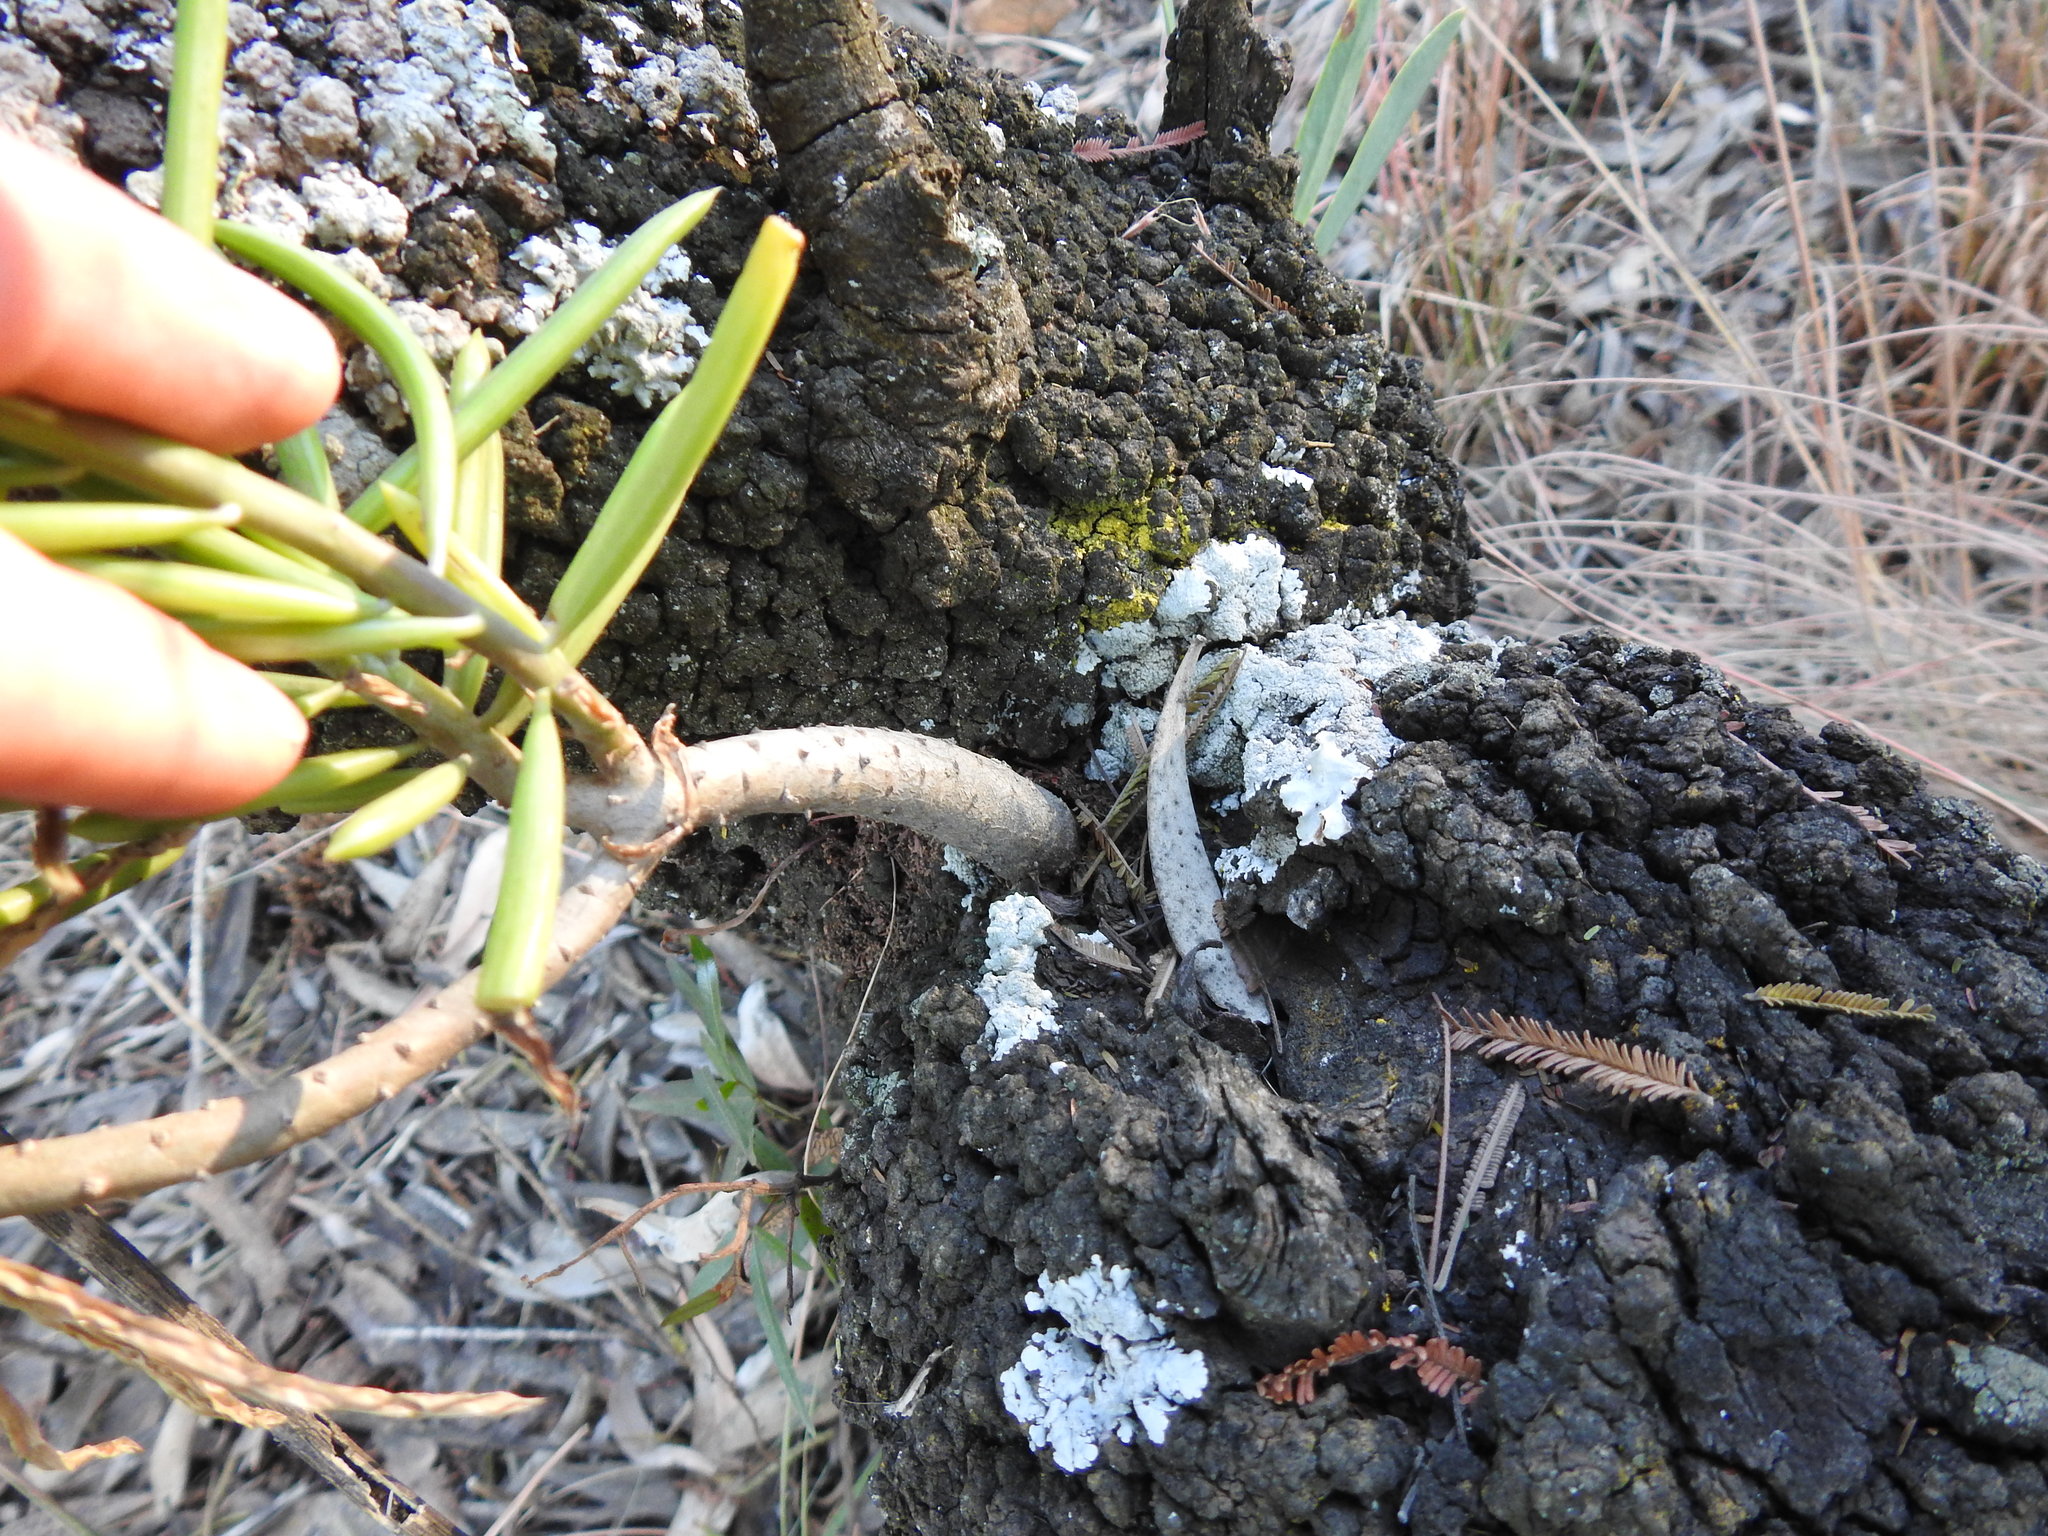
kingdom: Plantae
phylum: Tracheophyta
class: Magnoliopsida
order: Asterales
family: Asteraceae
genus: Kleinia
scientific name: Kleinia barbertonica
